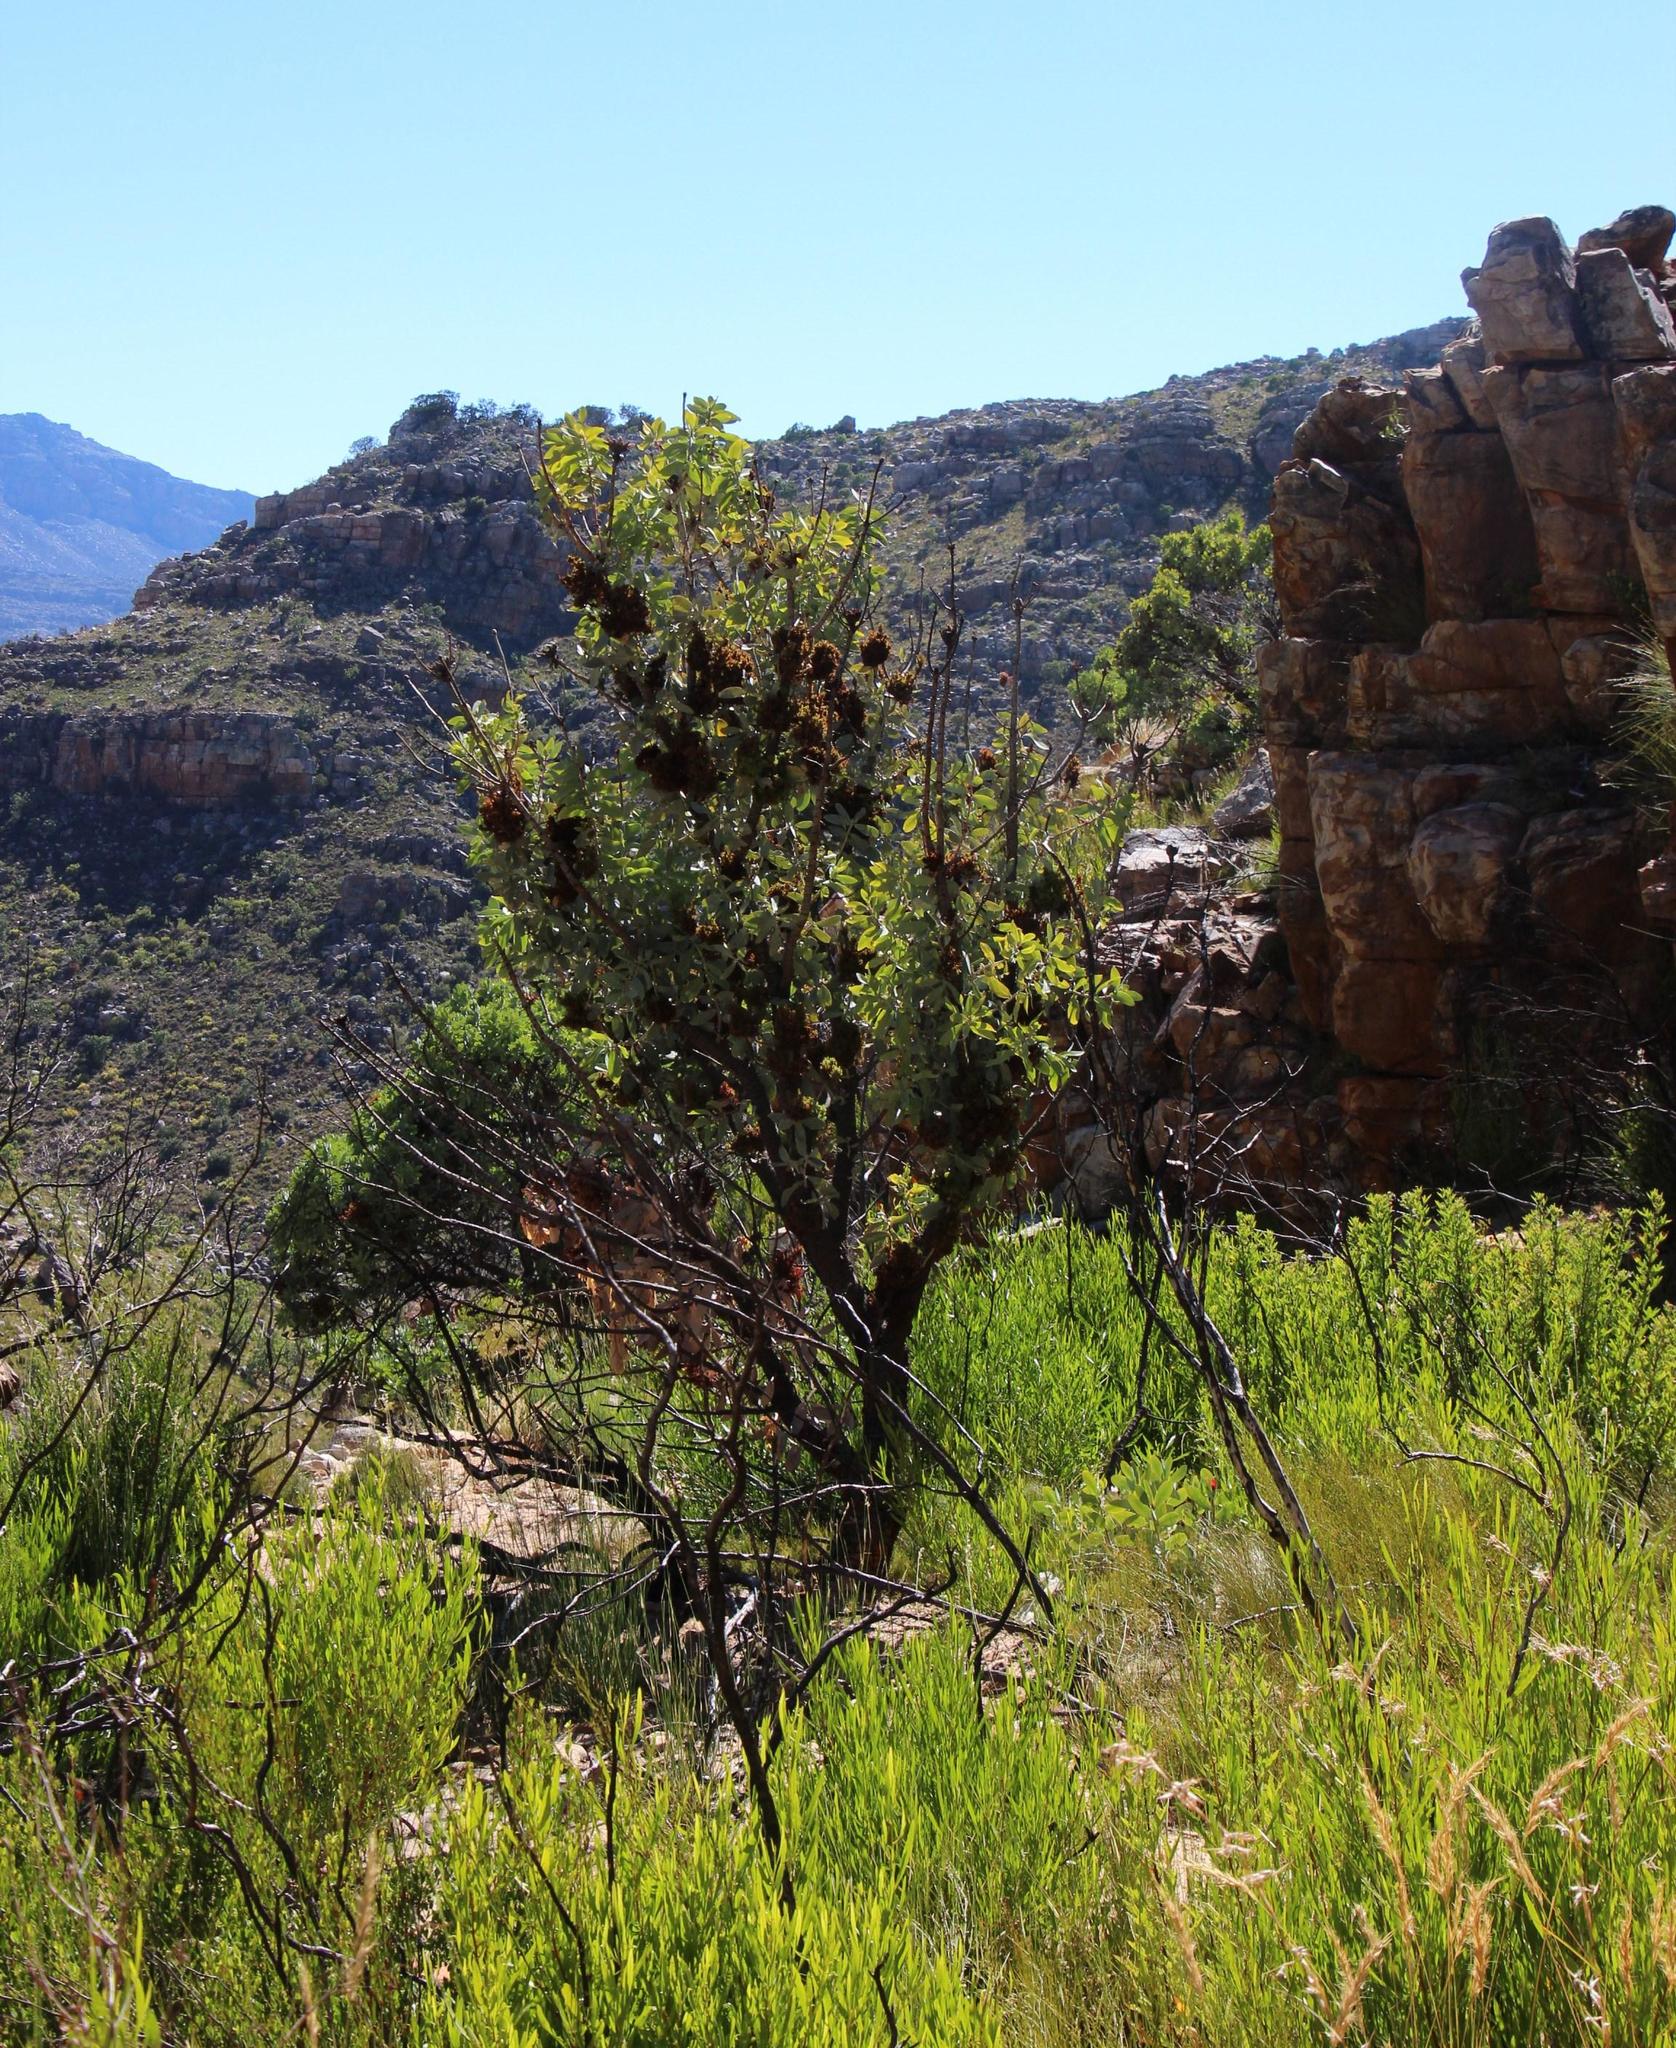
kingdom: Plantae
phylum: Tracheophyta
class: Magnoliopsida
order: Proteales
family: Proteaceae
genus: Protea
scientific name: Protea nitida
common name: Tree protea
